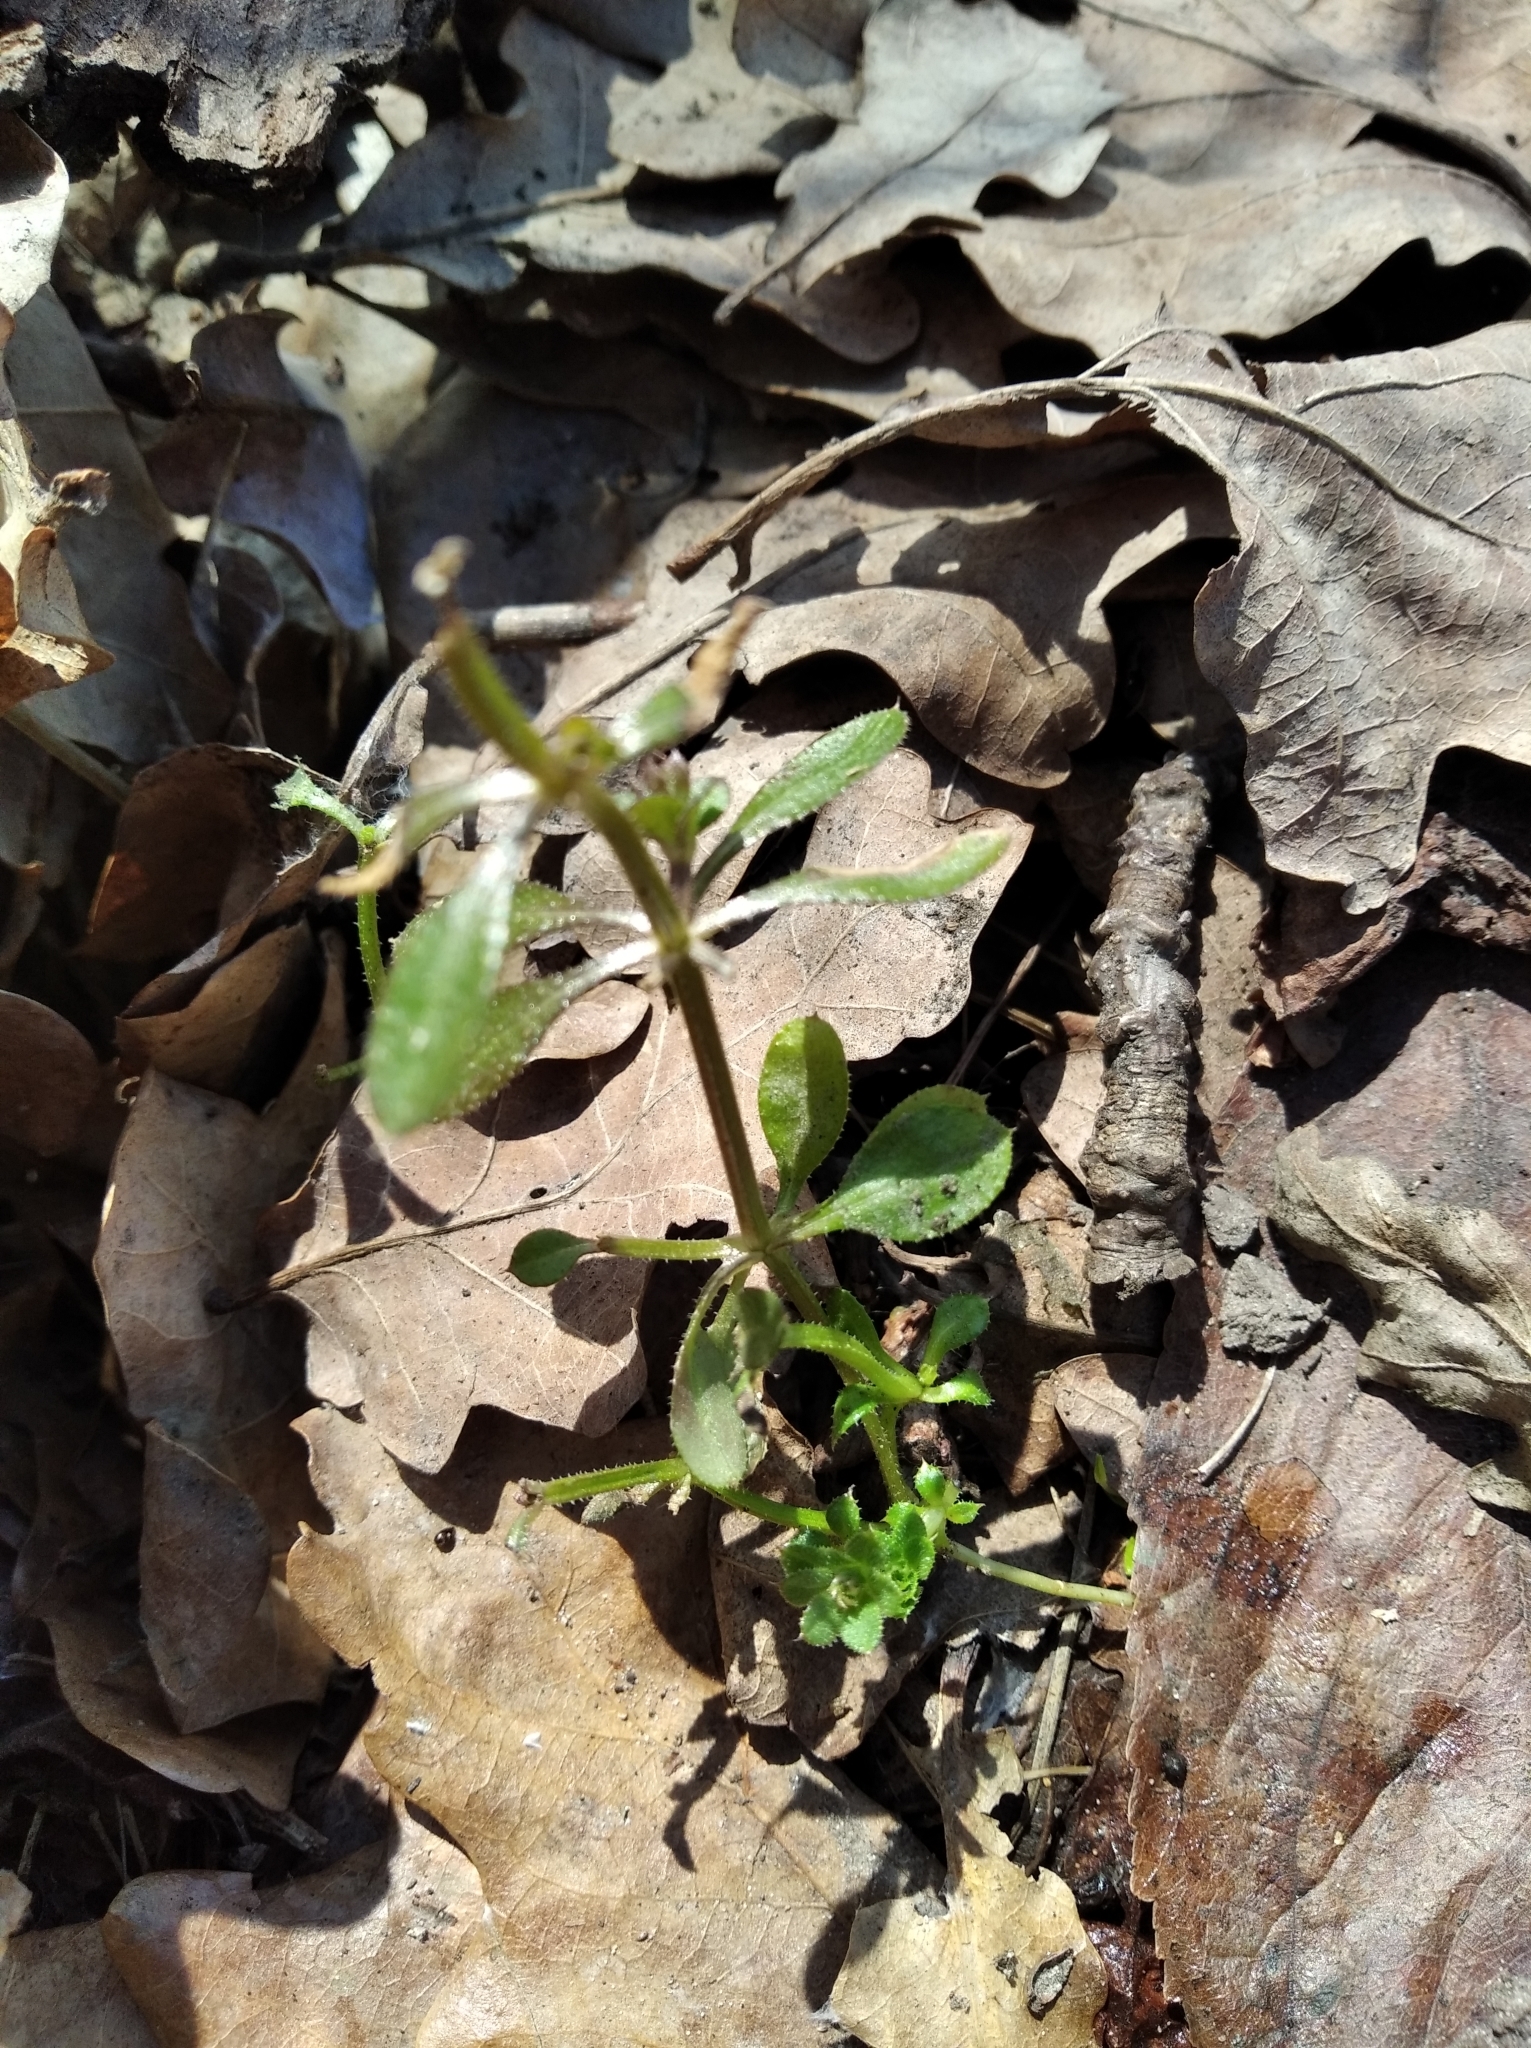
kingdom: Plantae
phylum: Tracheophyta
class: Magnoliopsida
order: Gentianales
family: Rubiaceae
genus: Galium
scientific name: Galium aparine
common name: Cleavers
